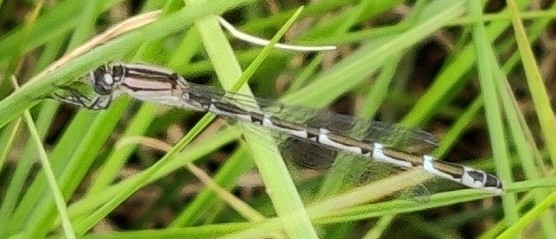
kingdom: Animalia
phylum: Arthropoda
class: Insecta
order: Odonata
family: Coenagrionidae
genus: Enallagma
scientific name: Enallagma cyathigerum
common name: Common blue damselfly
